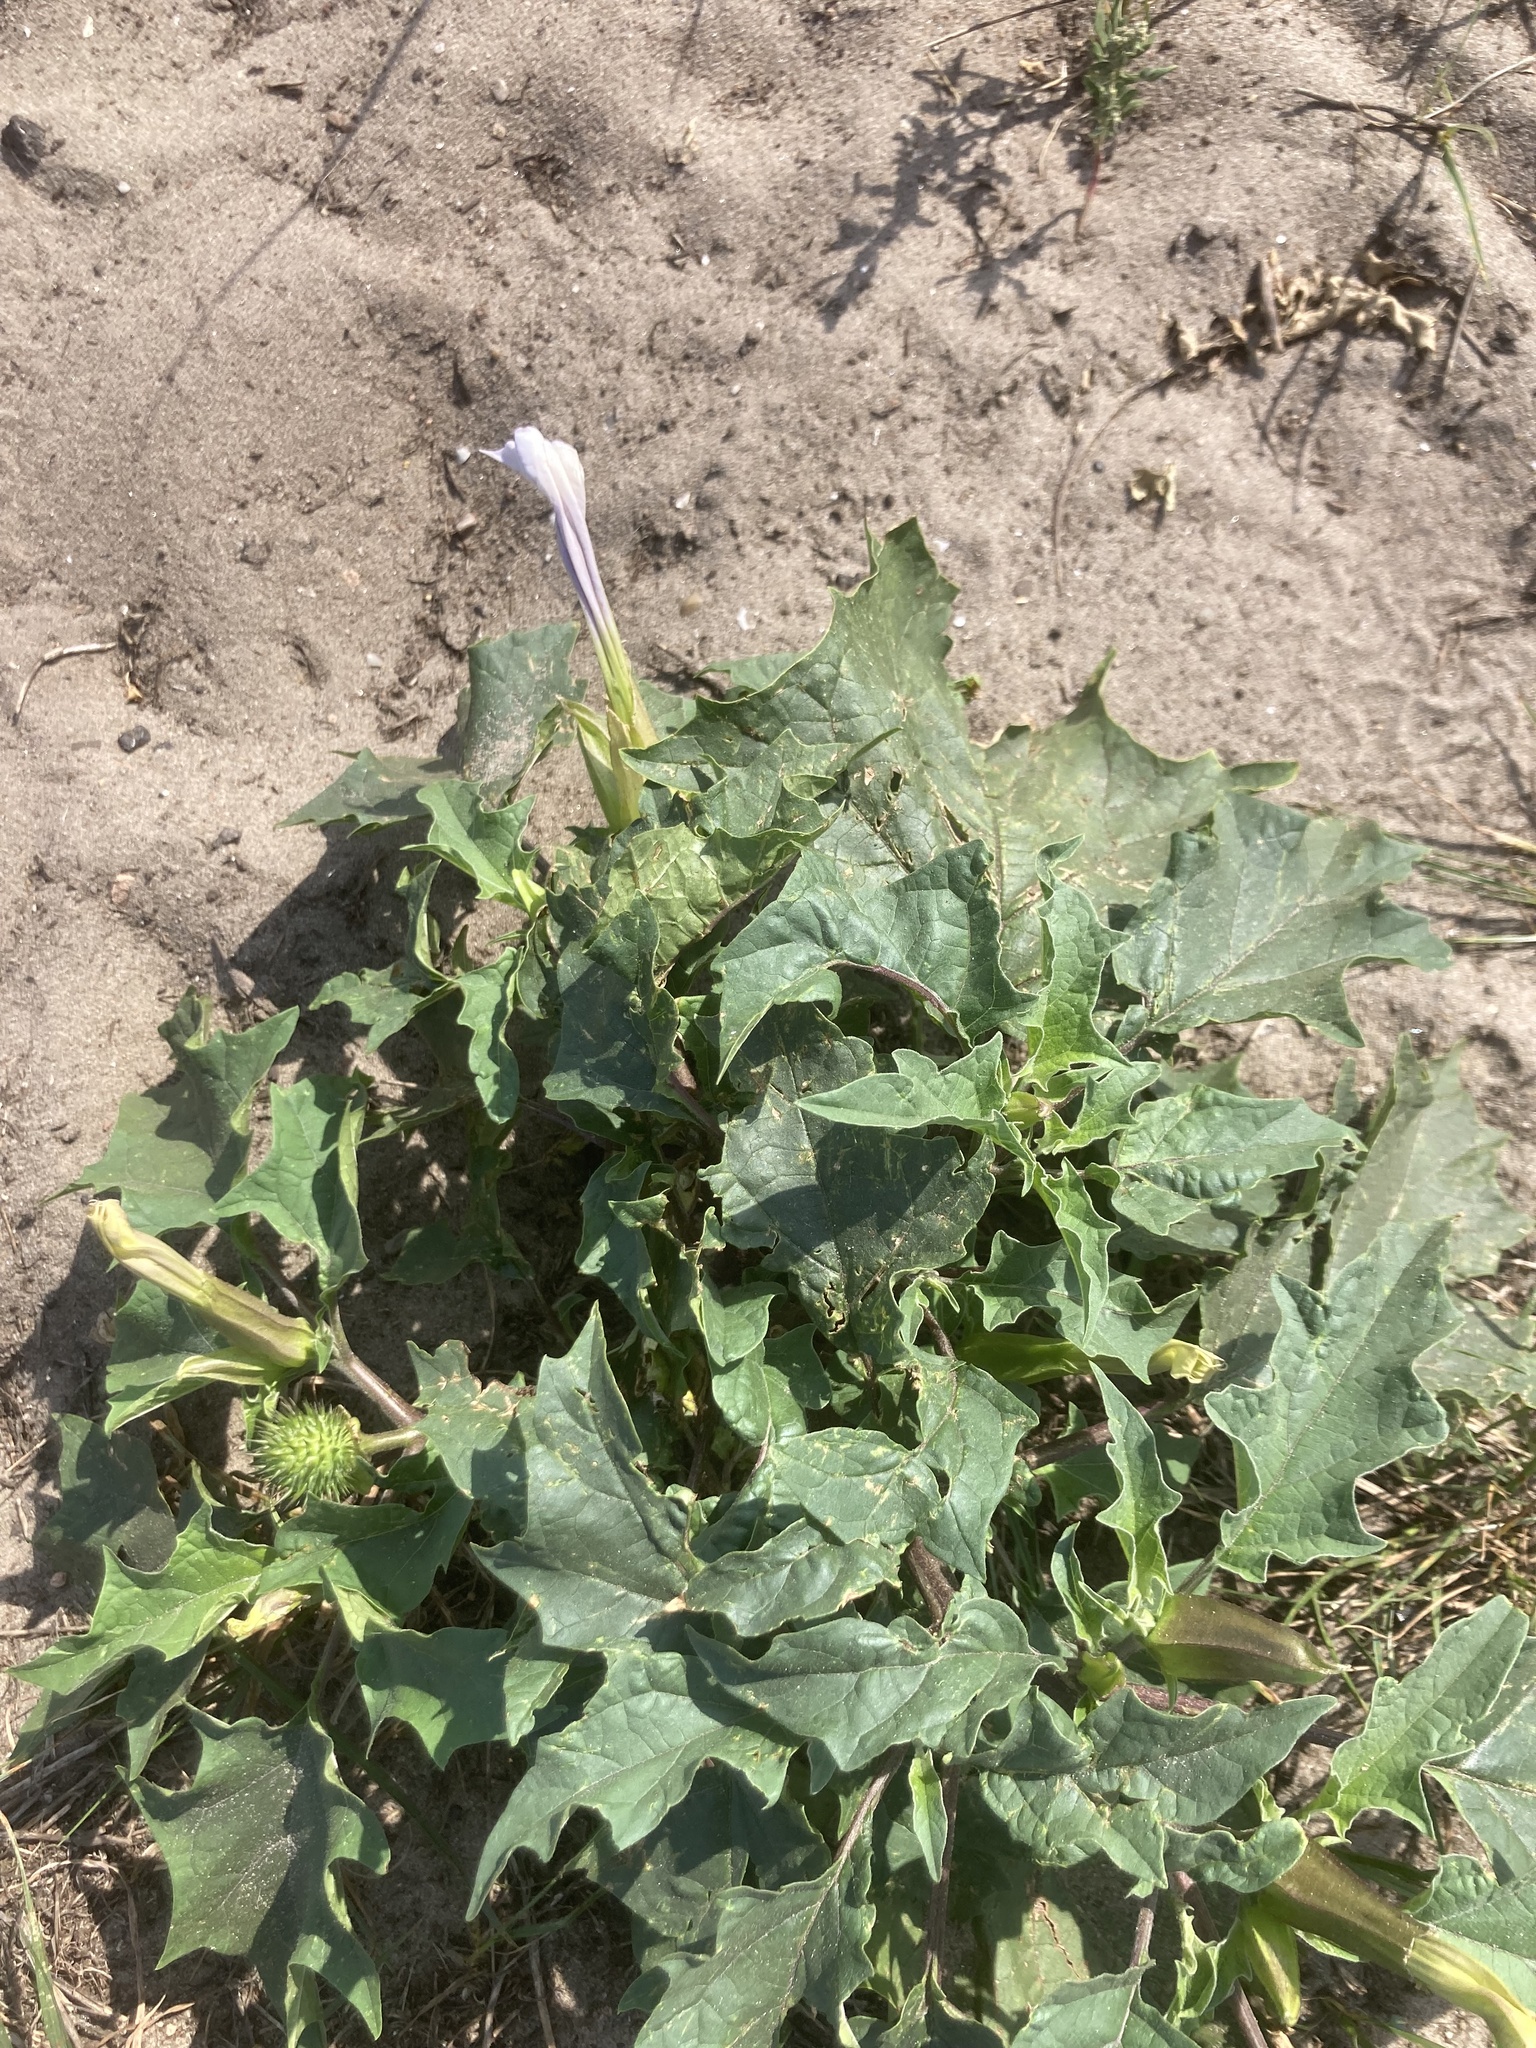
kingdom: Plantae
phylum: Tracheophyta
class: Magnoliopsida
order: Solanales
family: Solanaceae
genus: Datura
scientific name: Datura stramonium
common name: Thorn-apple
